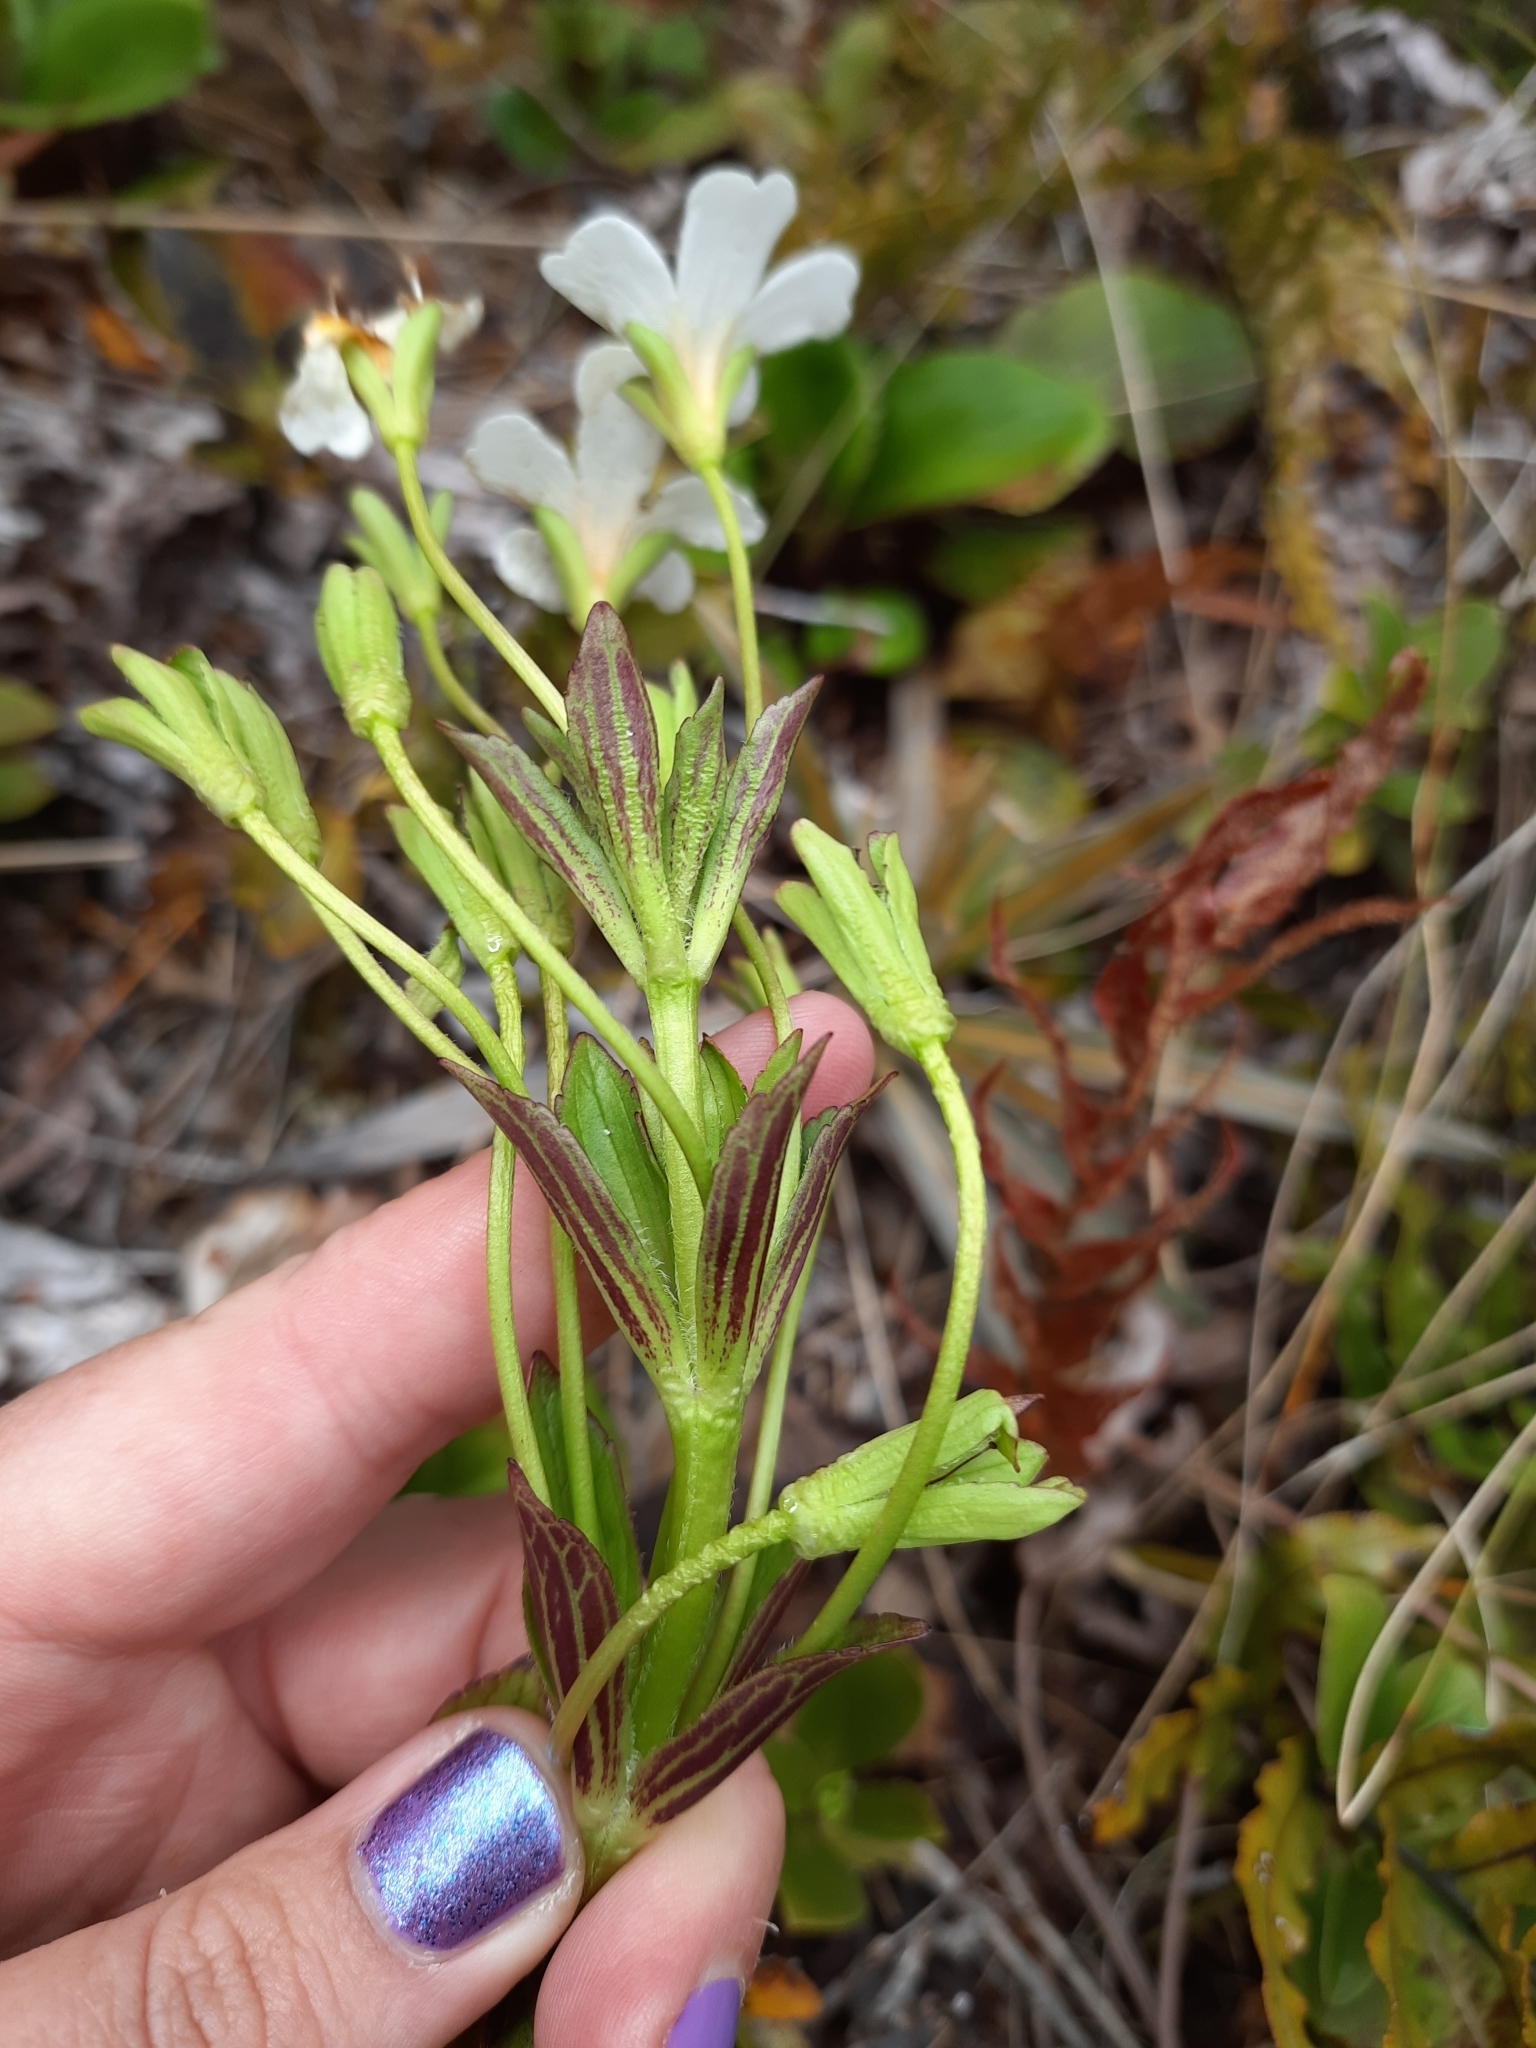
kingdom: Plantae
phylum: Tracheophyta
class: Magnoliopsida
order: Lamiales
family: Plantaginaceae
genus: Ourisia
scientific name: Ourisia calycina
